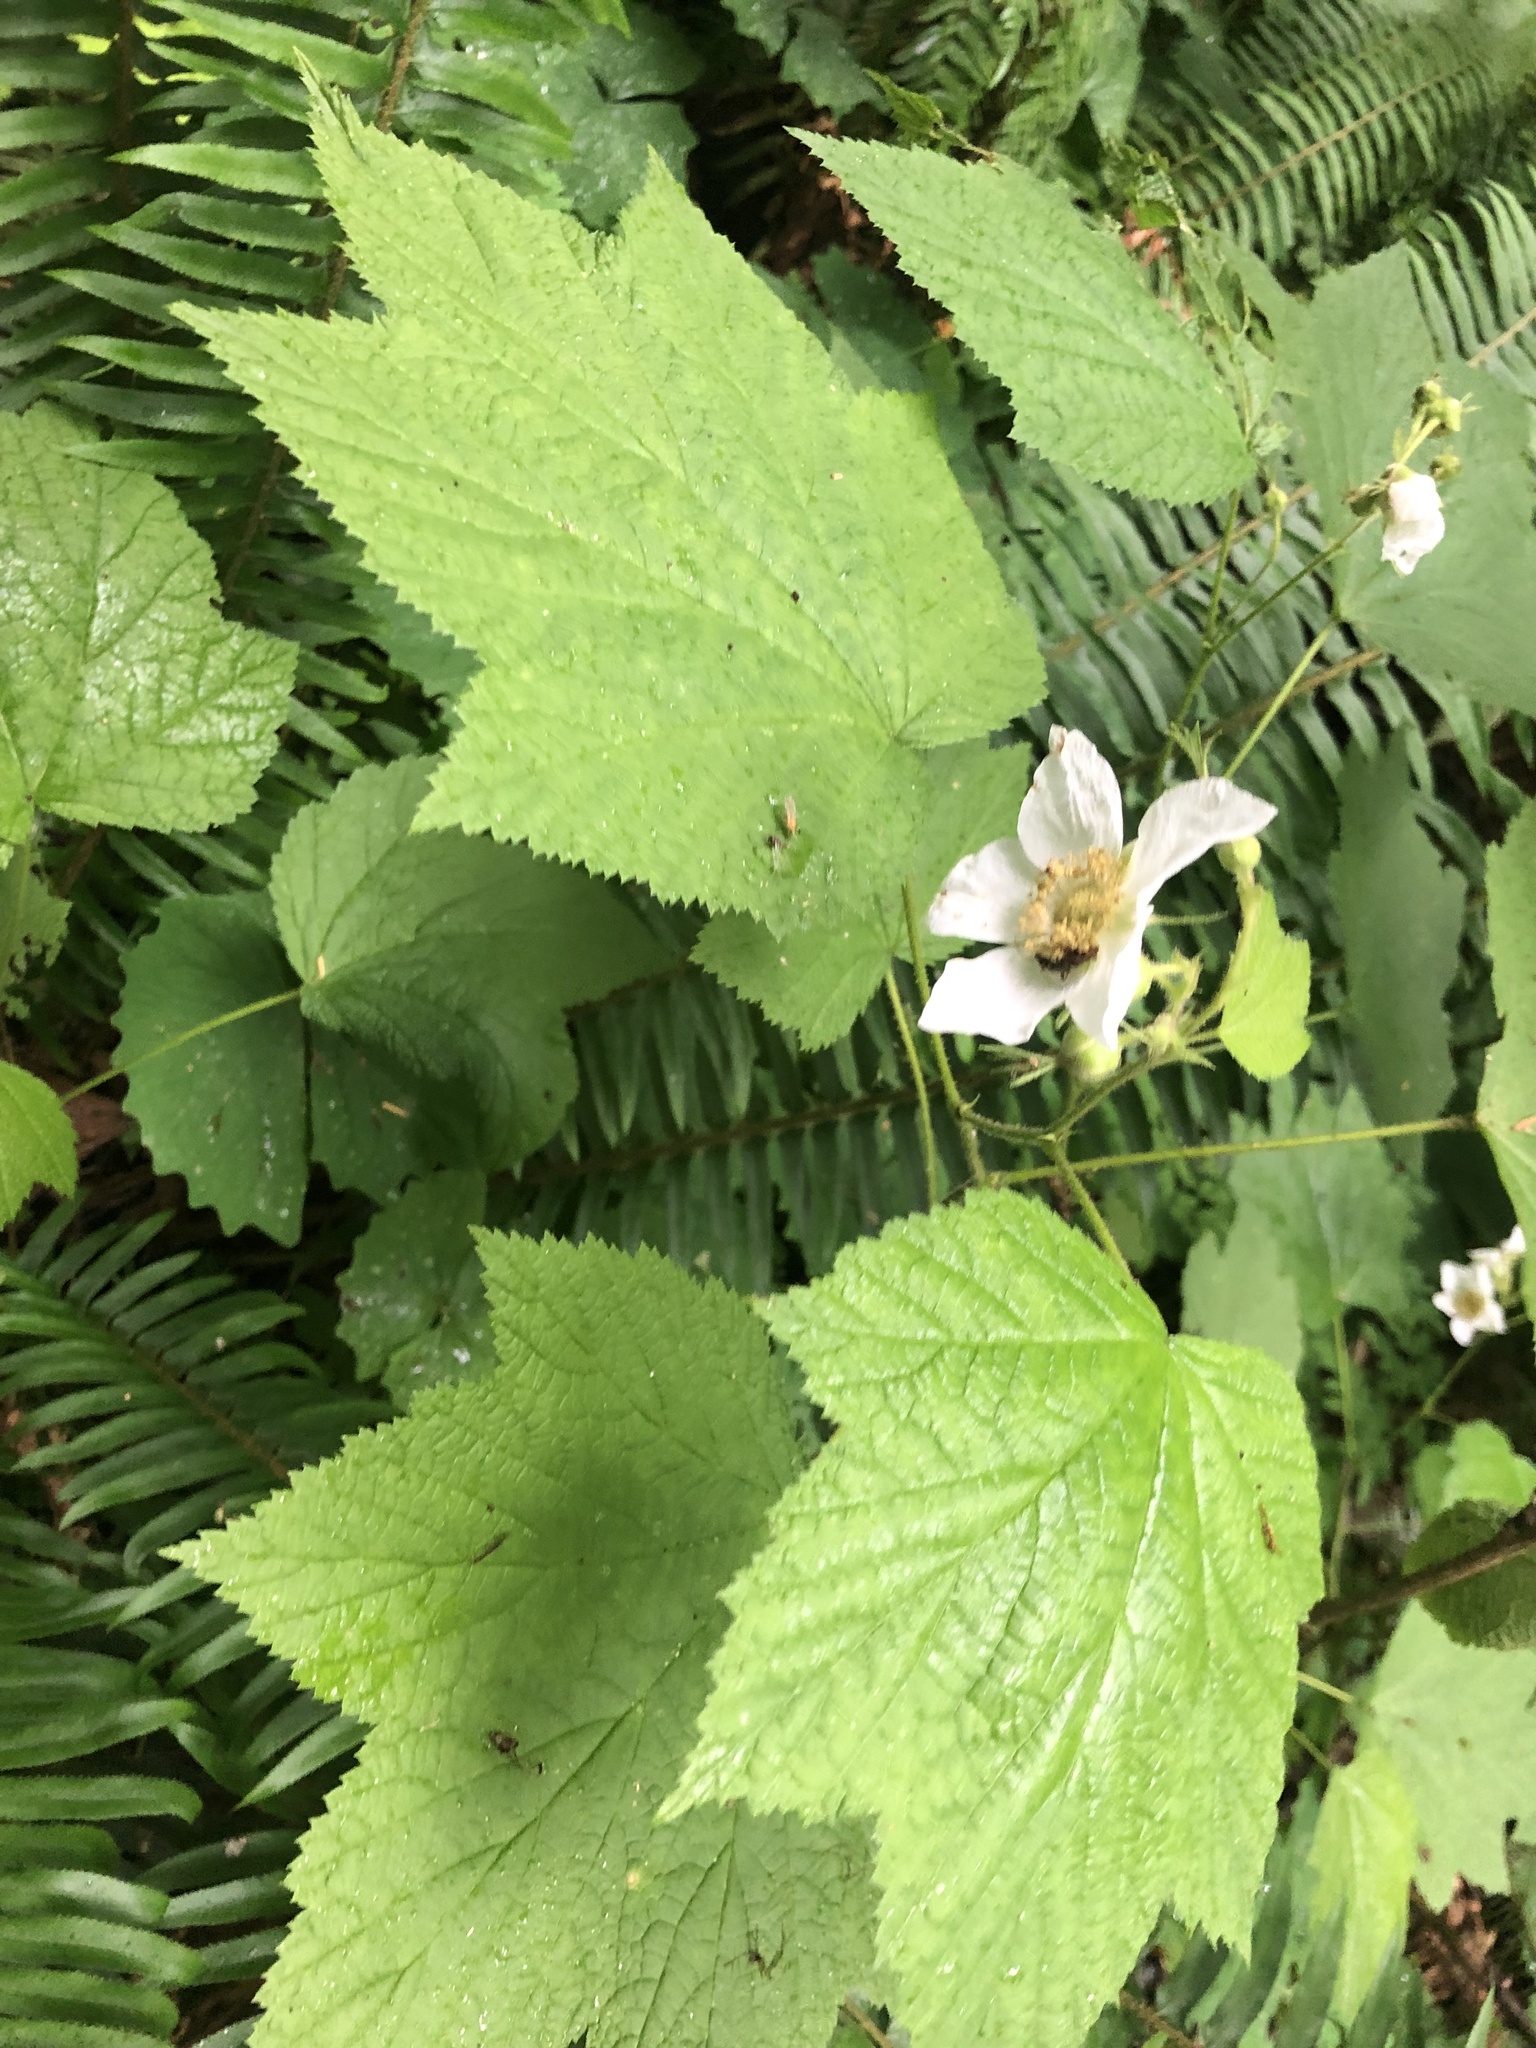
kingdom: Plantae
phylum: Tracheophyta
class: Magnoliopsida
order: Rosales
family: Rosaceae
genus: Rubus
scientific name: Rubus parviflorus
